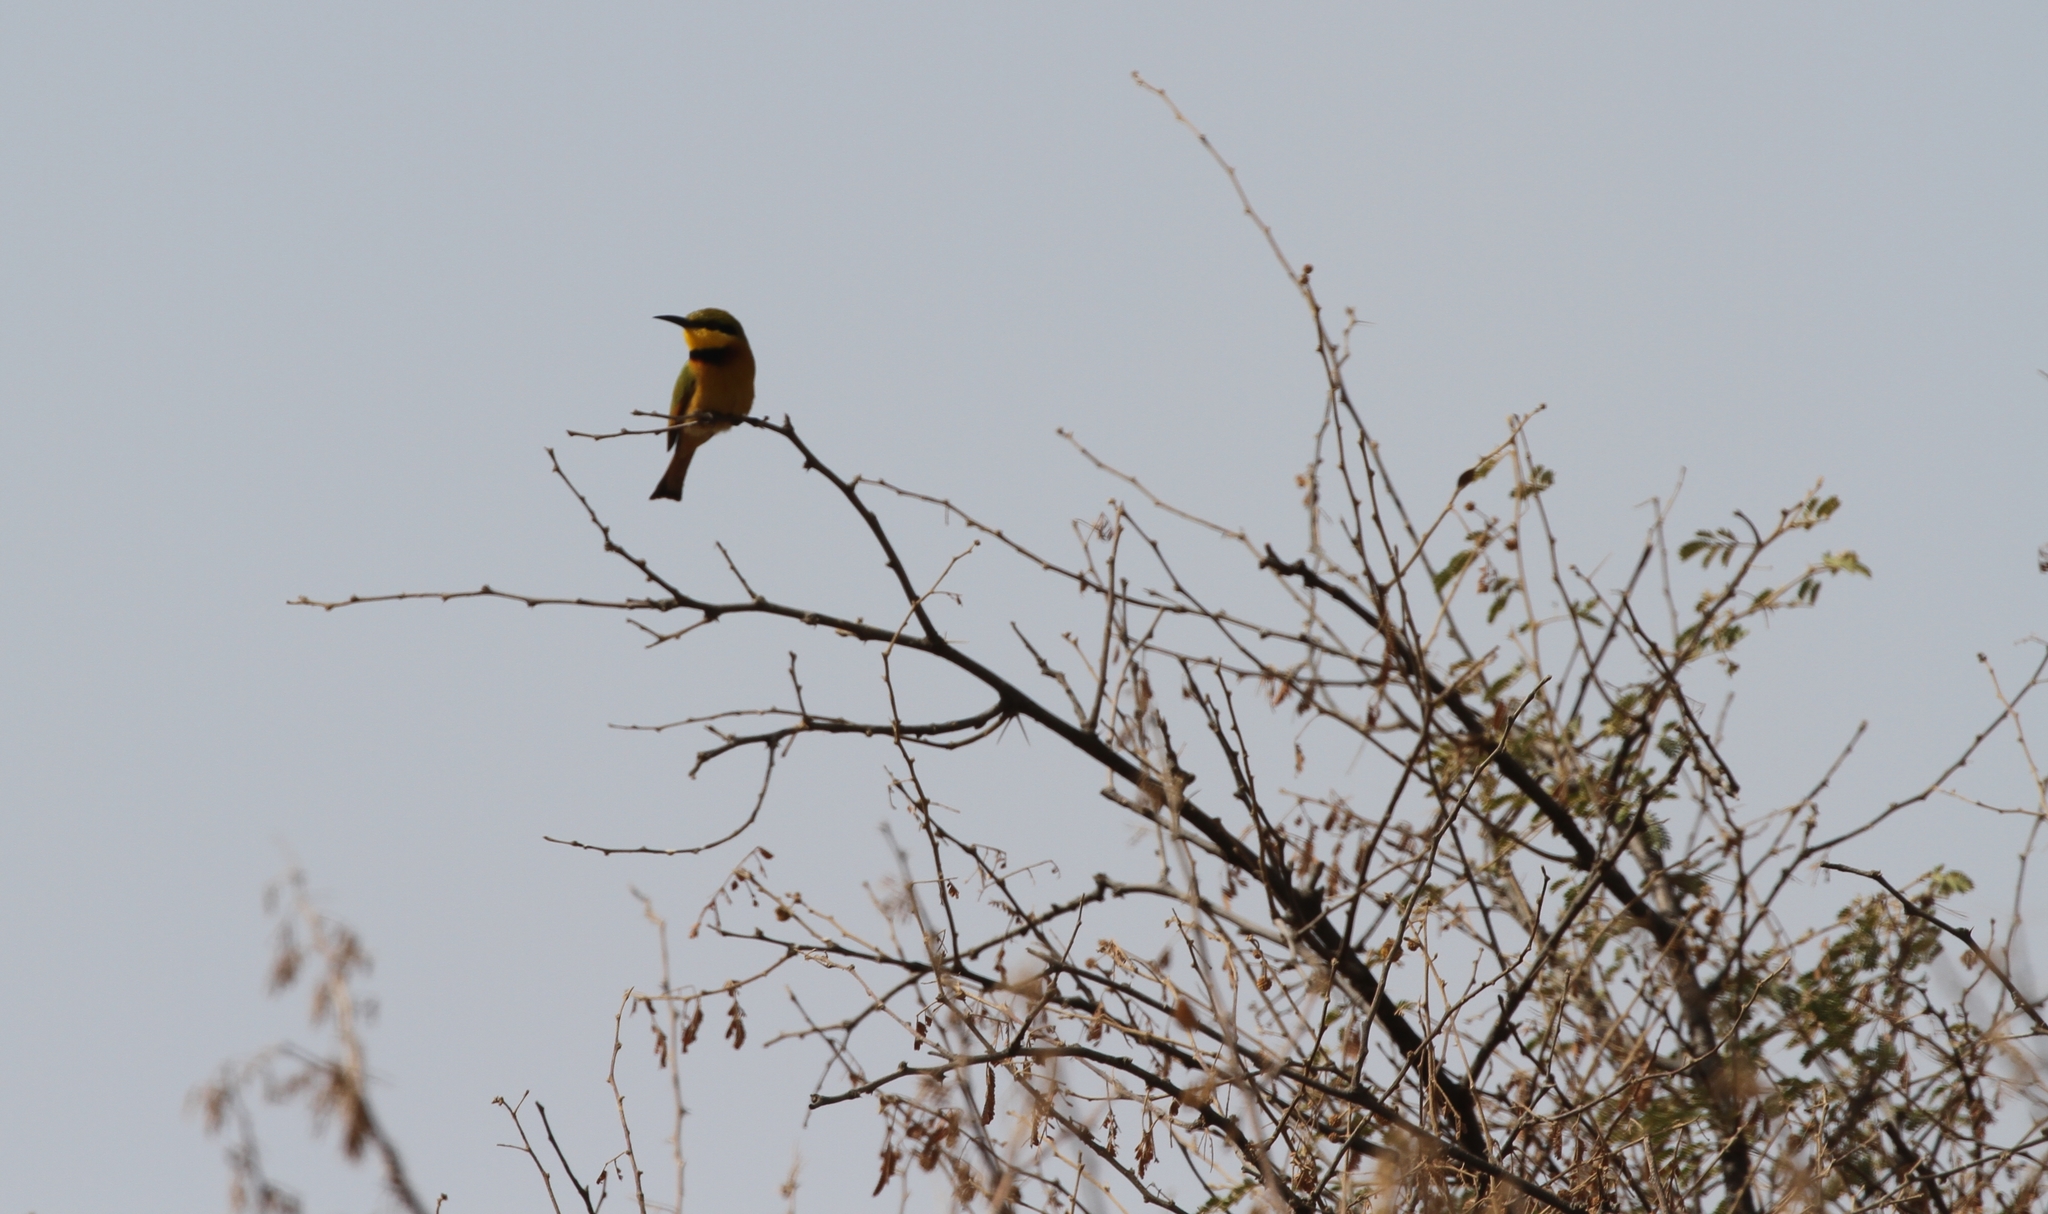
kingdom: Animalia
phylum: Chordata
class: Aves
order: Coraciiformes
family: Meropidae
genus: Merops
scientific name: Merops pusillus
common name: Little bee-eater
